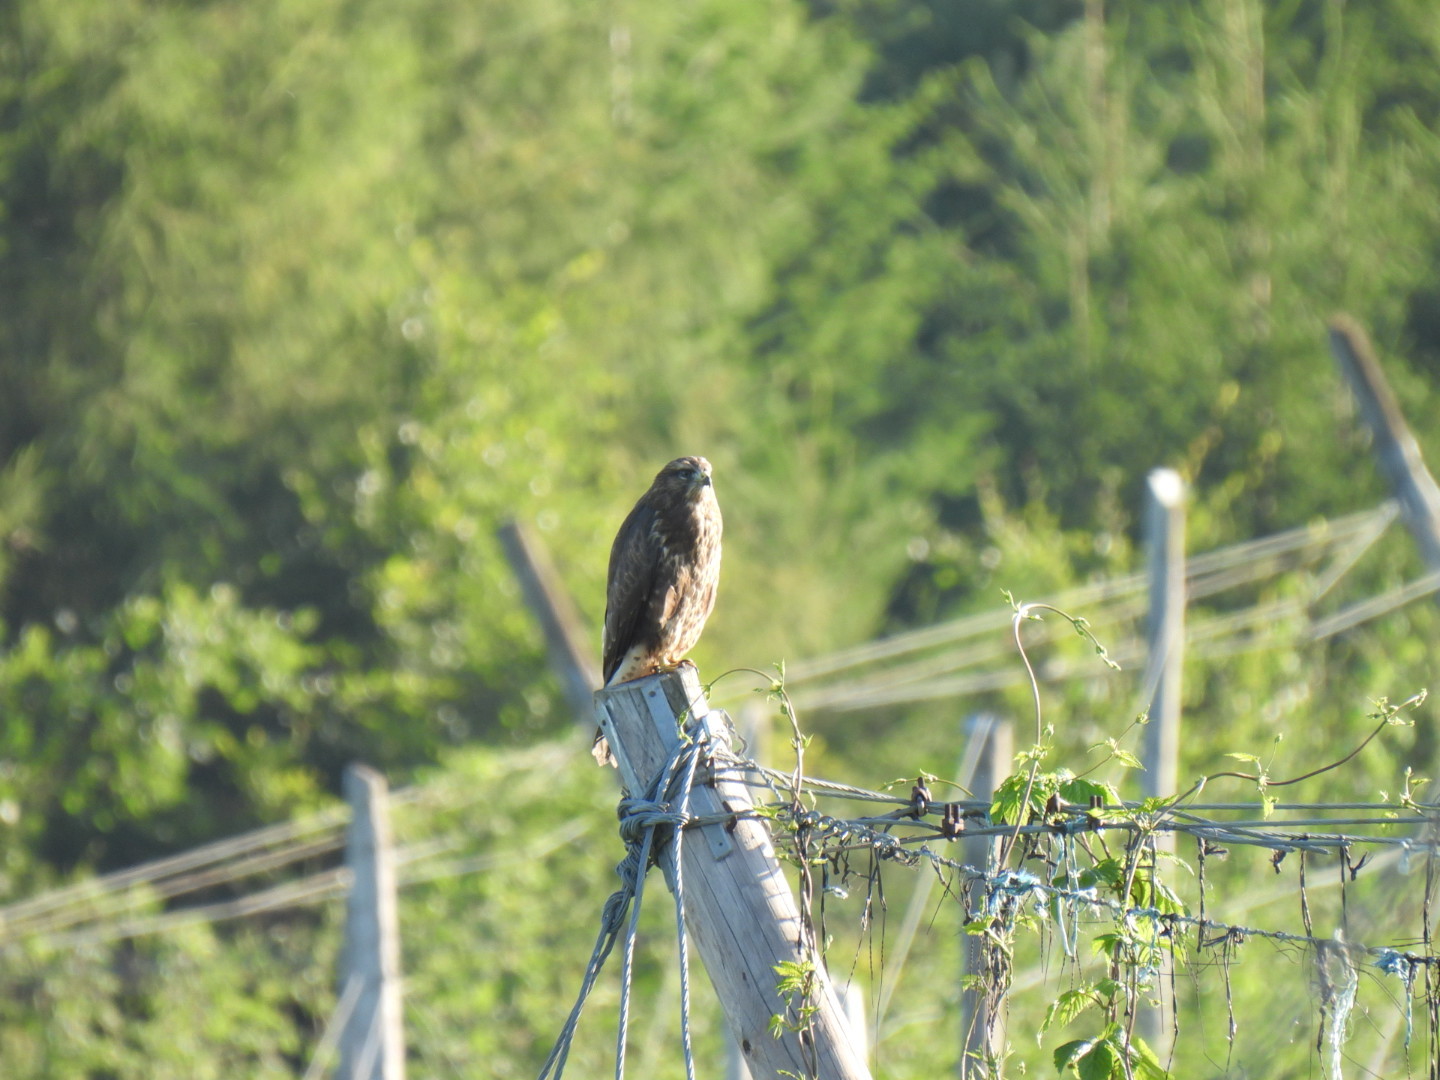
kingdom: Animalia
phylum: Chordata
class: Aves
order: Accipitriformes
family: Accipitridae
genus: Buteo
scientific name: Buteo buteo
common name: Common buzzard
